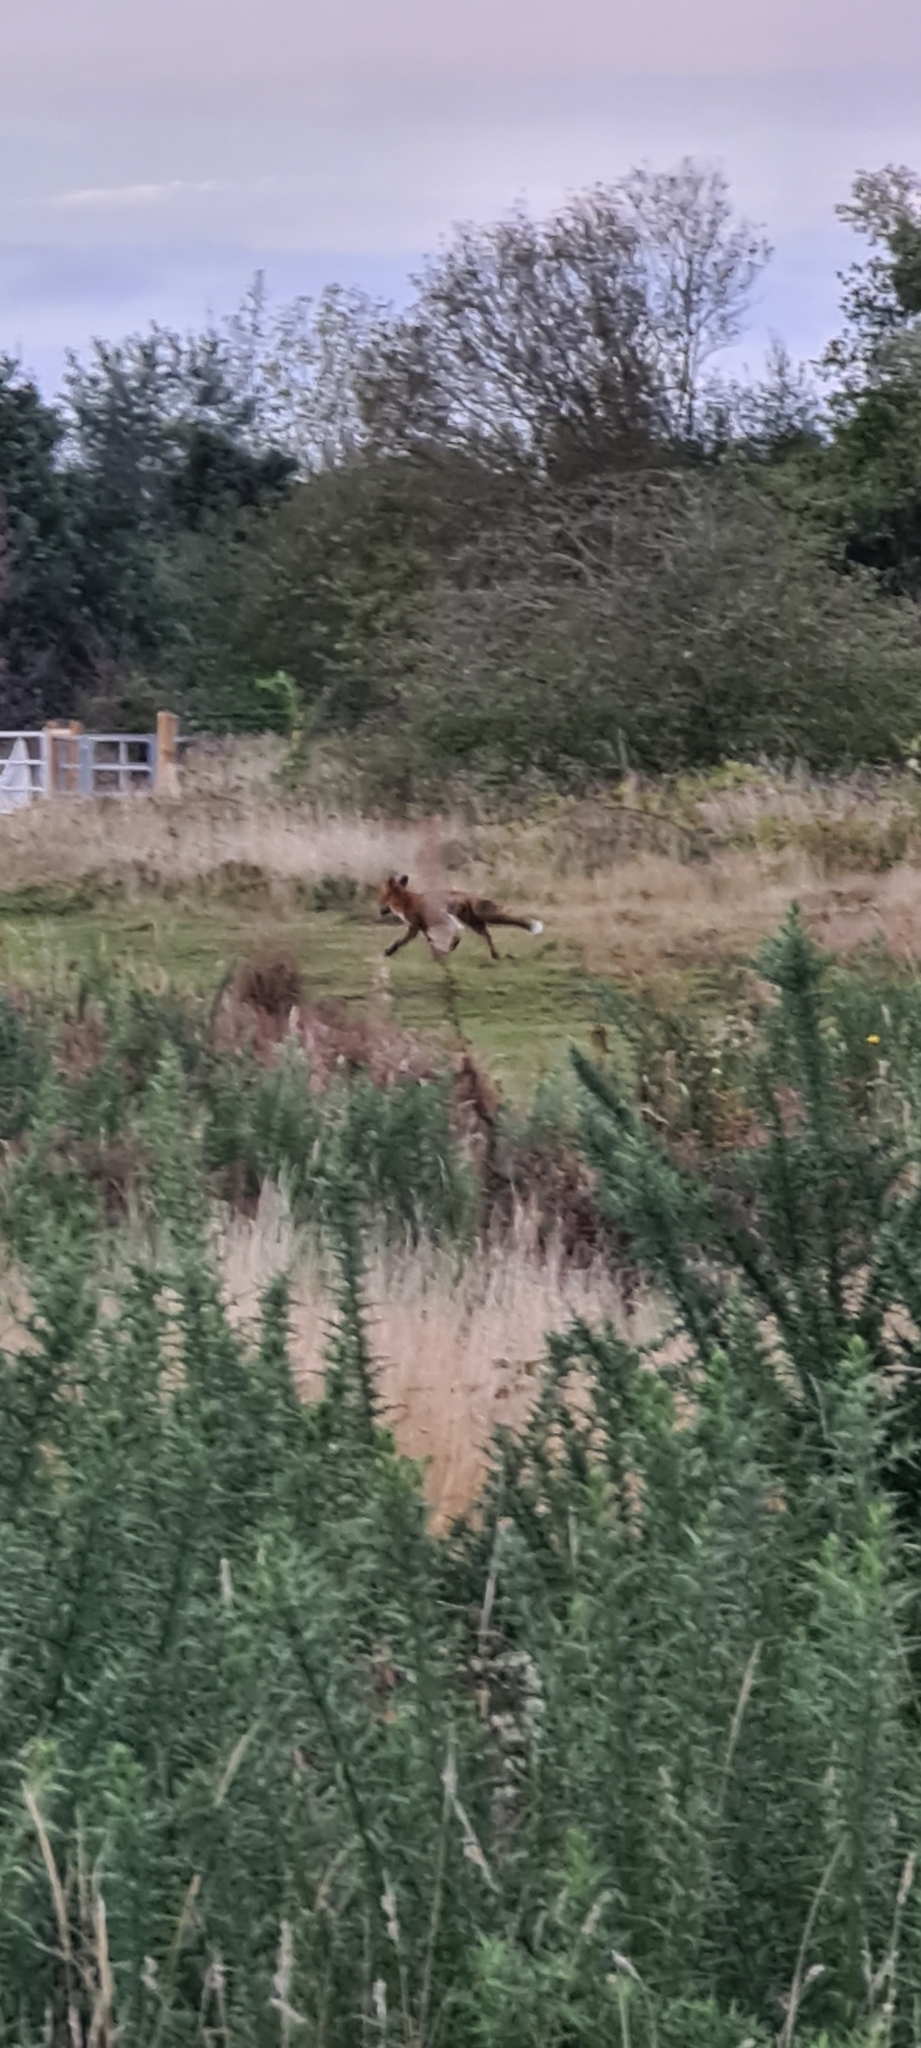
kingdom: Animalia
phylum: Chordata
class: Mammalia
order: Carnivora
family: Canidae
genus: Vulpes
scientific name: Vulpes vulpes
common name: Red fox
